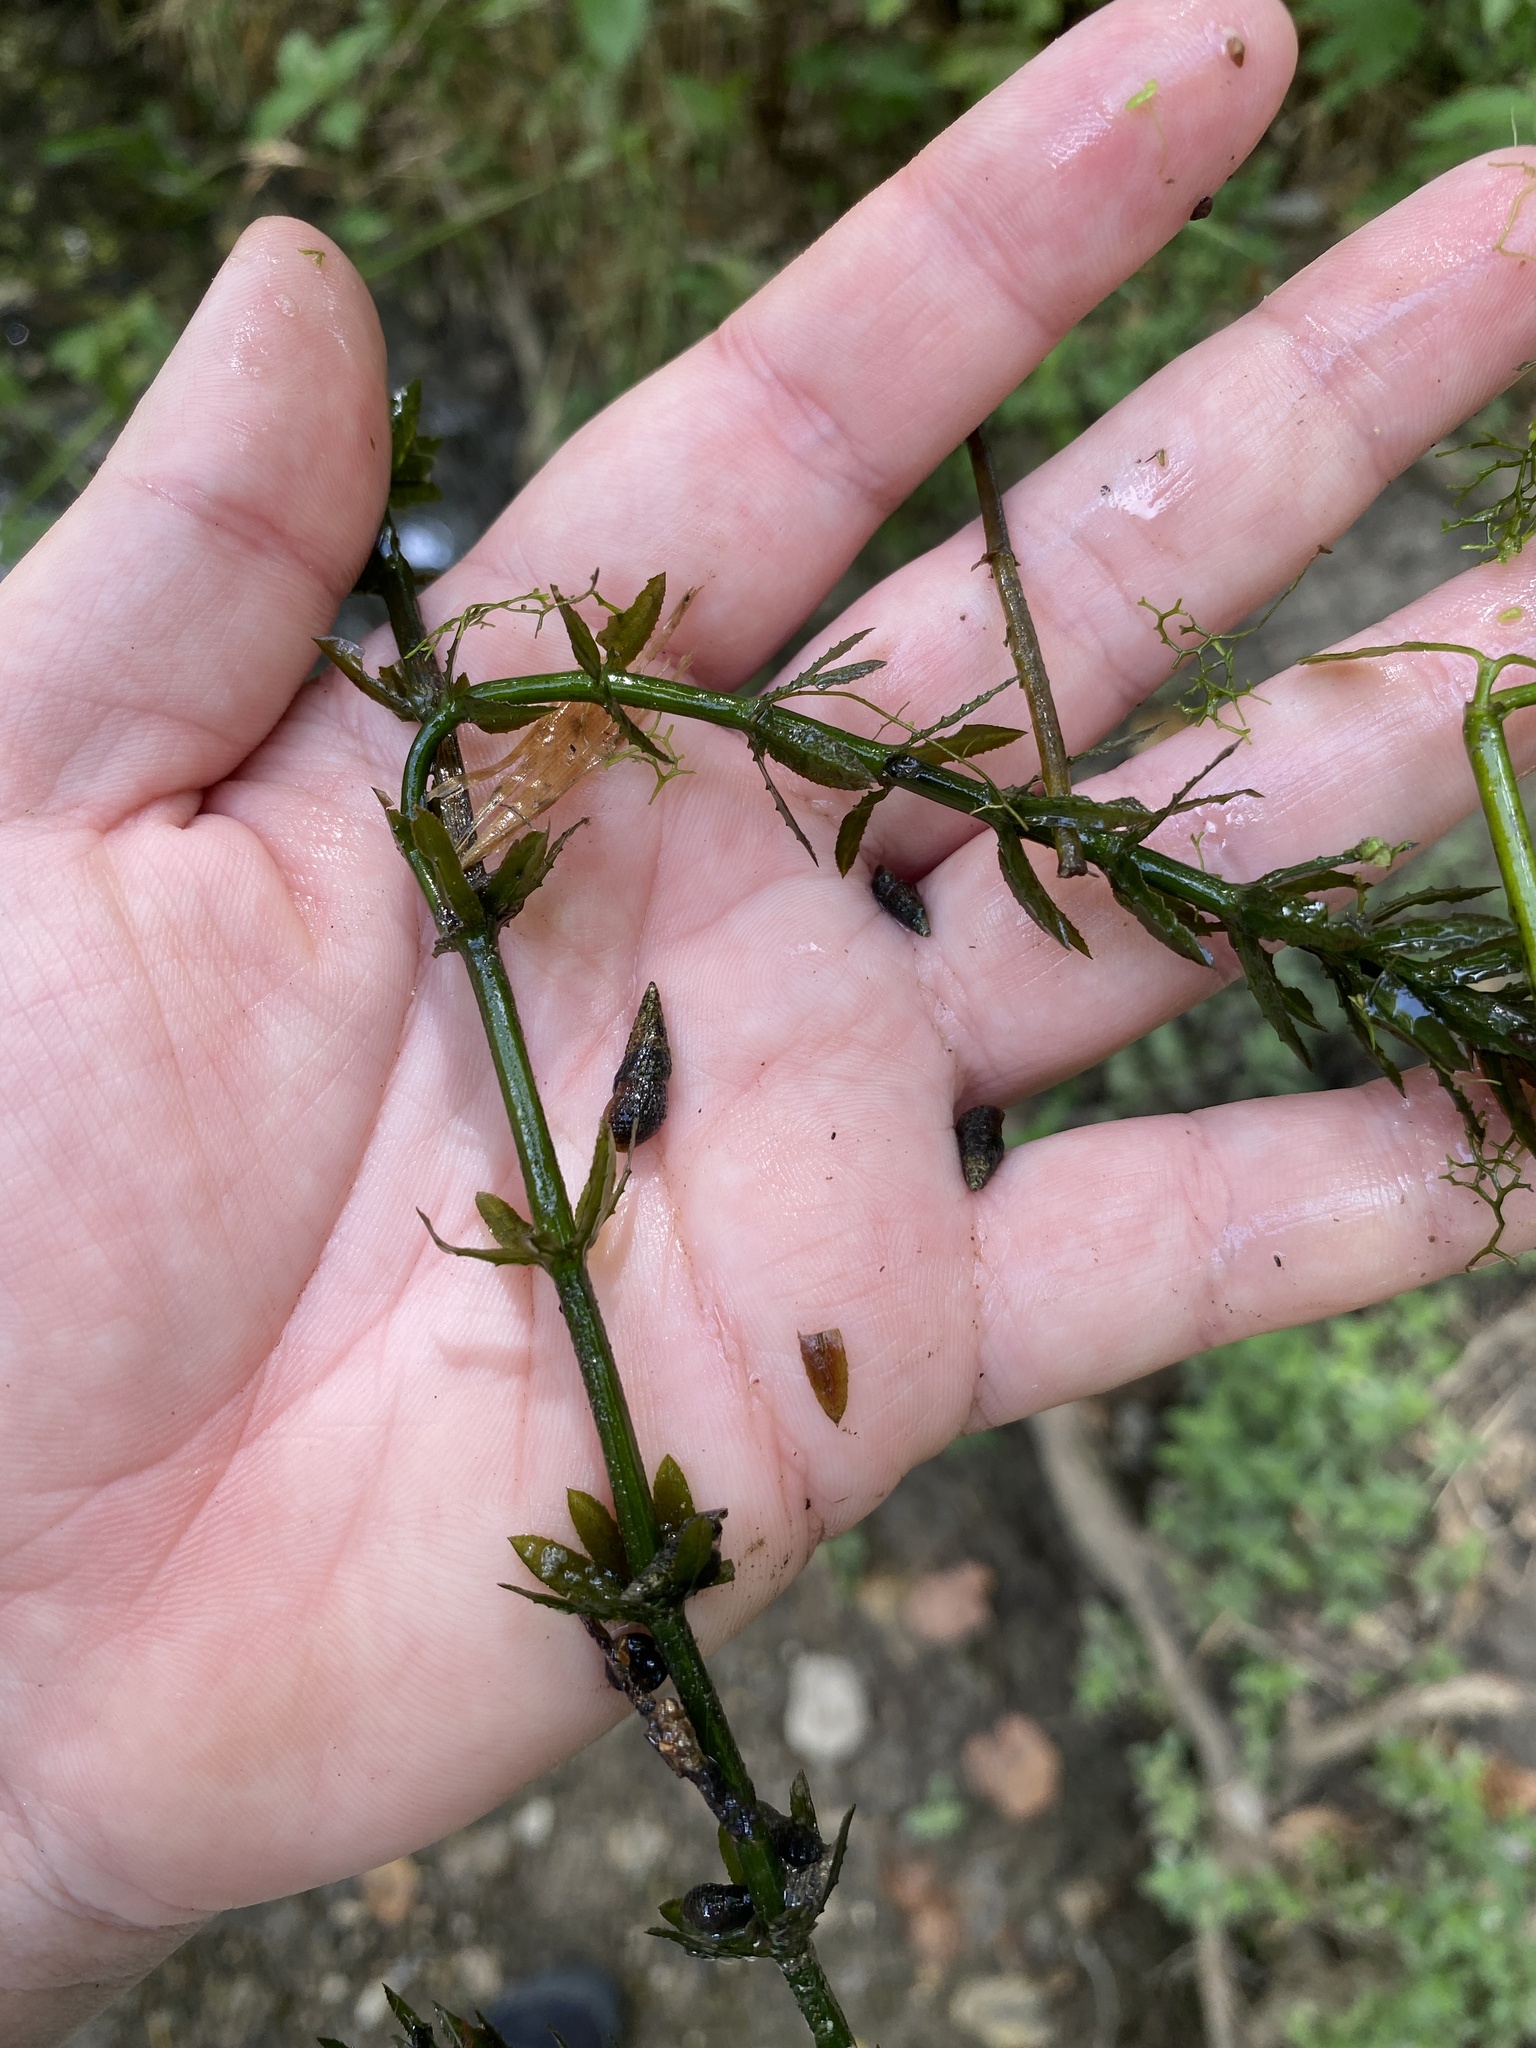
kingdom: Plantae
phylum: Tracheophyta
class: Liliopsida
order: Alismatales
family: Hydrocharitaceae
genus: Hydrilla
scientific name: Hydrilla verticillata
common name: Florida-elodea
